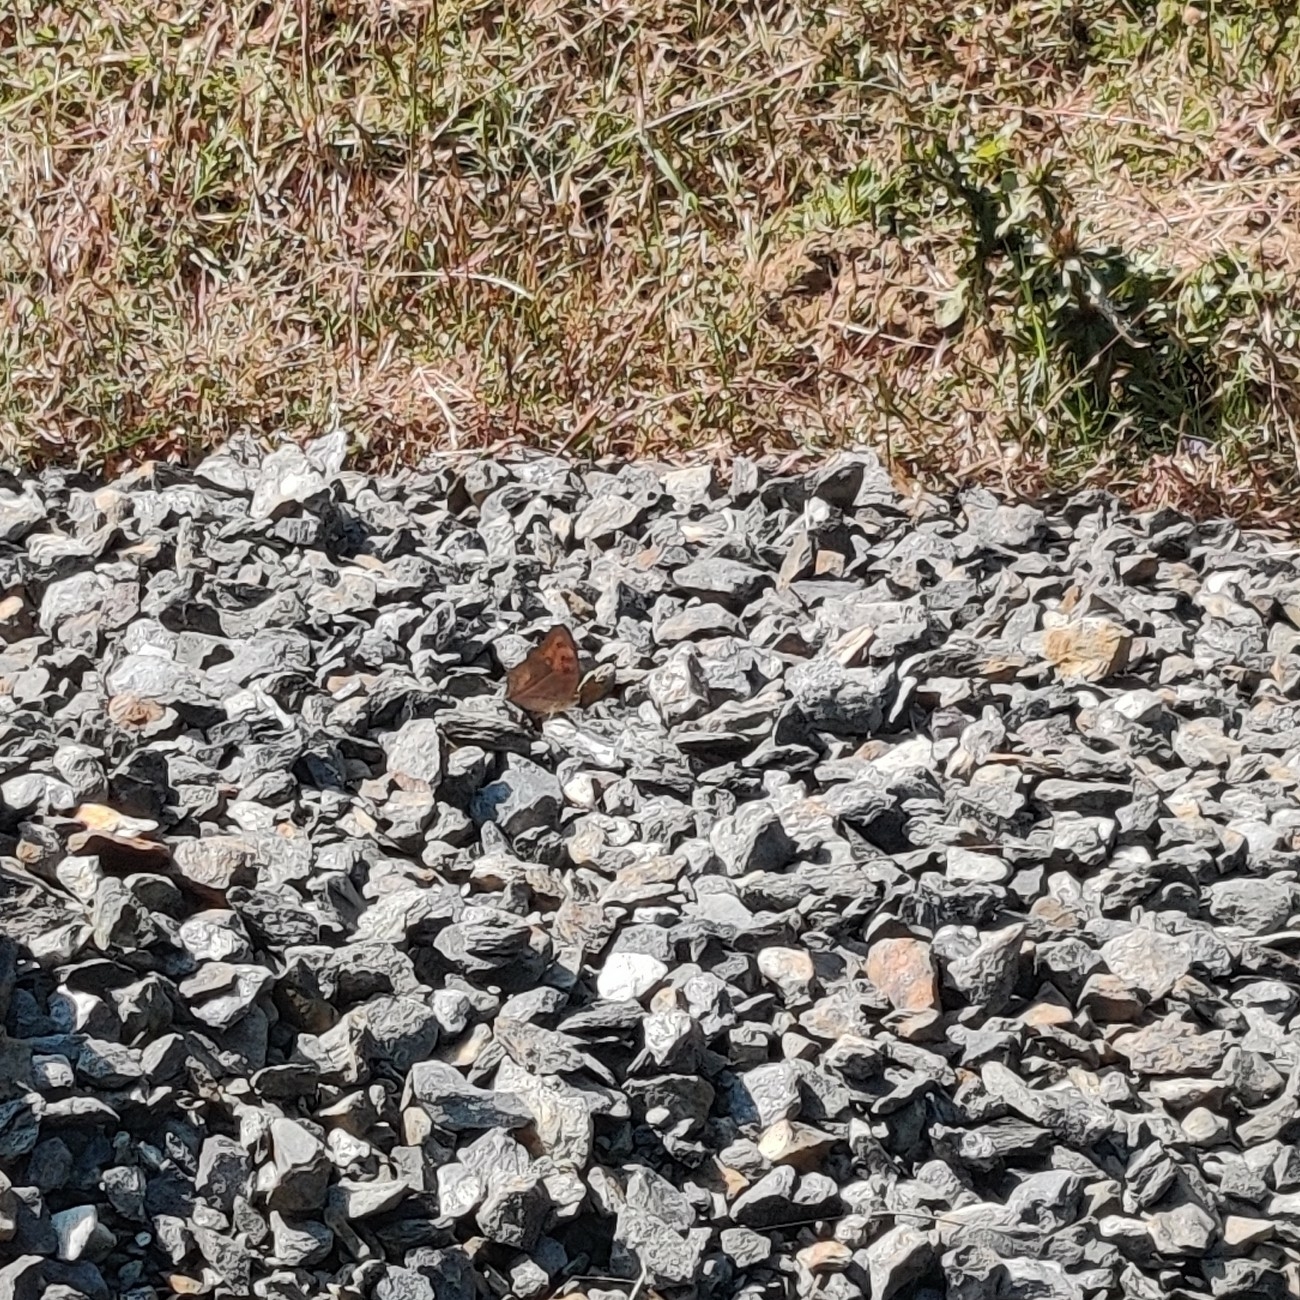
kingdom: Animalia
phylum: Arthropoda
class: Insecta
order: Lepidoptera
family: Nymphalidae
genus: Junonia
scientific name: Junonia almana
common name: Peacock pansy
